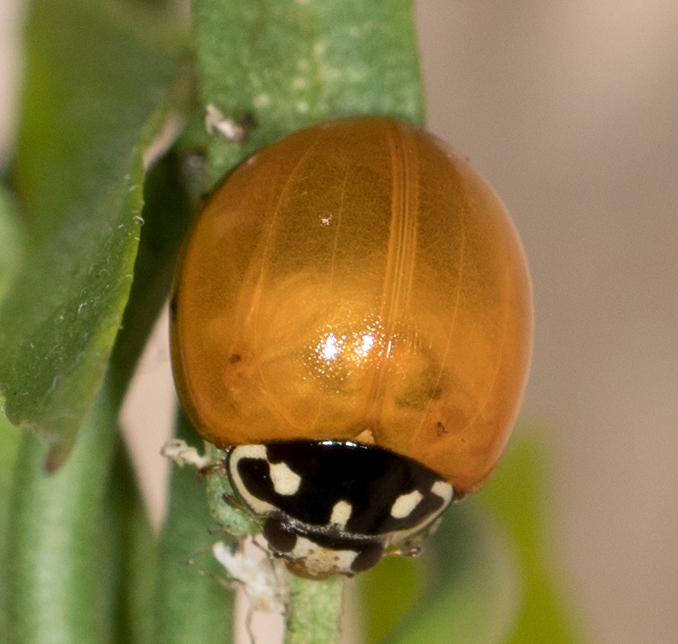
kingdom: Animalia
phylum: Arthropoda
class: Insecta
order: Coleoptera
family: Coccinellidae
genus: Cycloneda
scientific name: Cycloneda sanguinea
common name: Ladybird beetle
